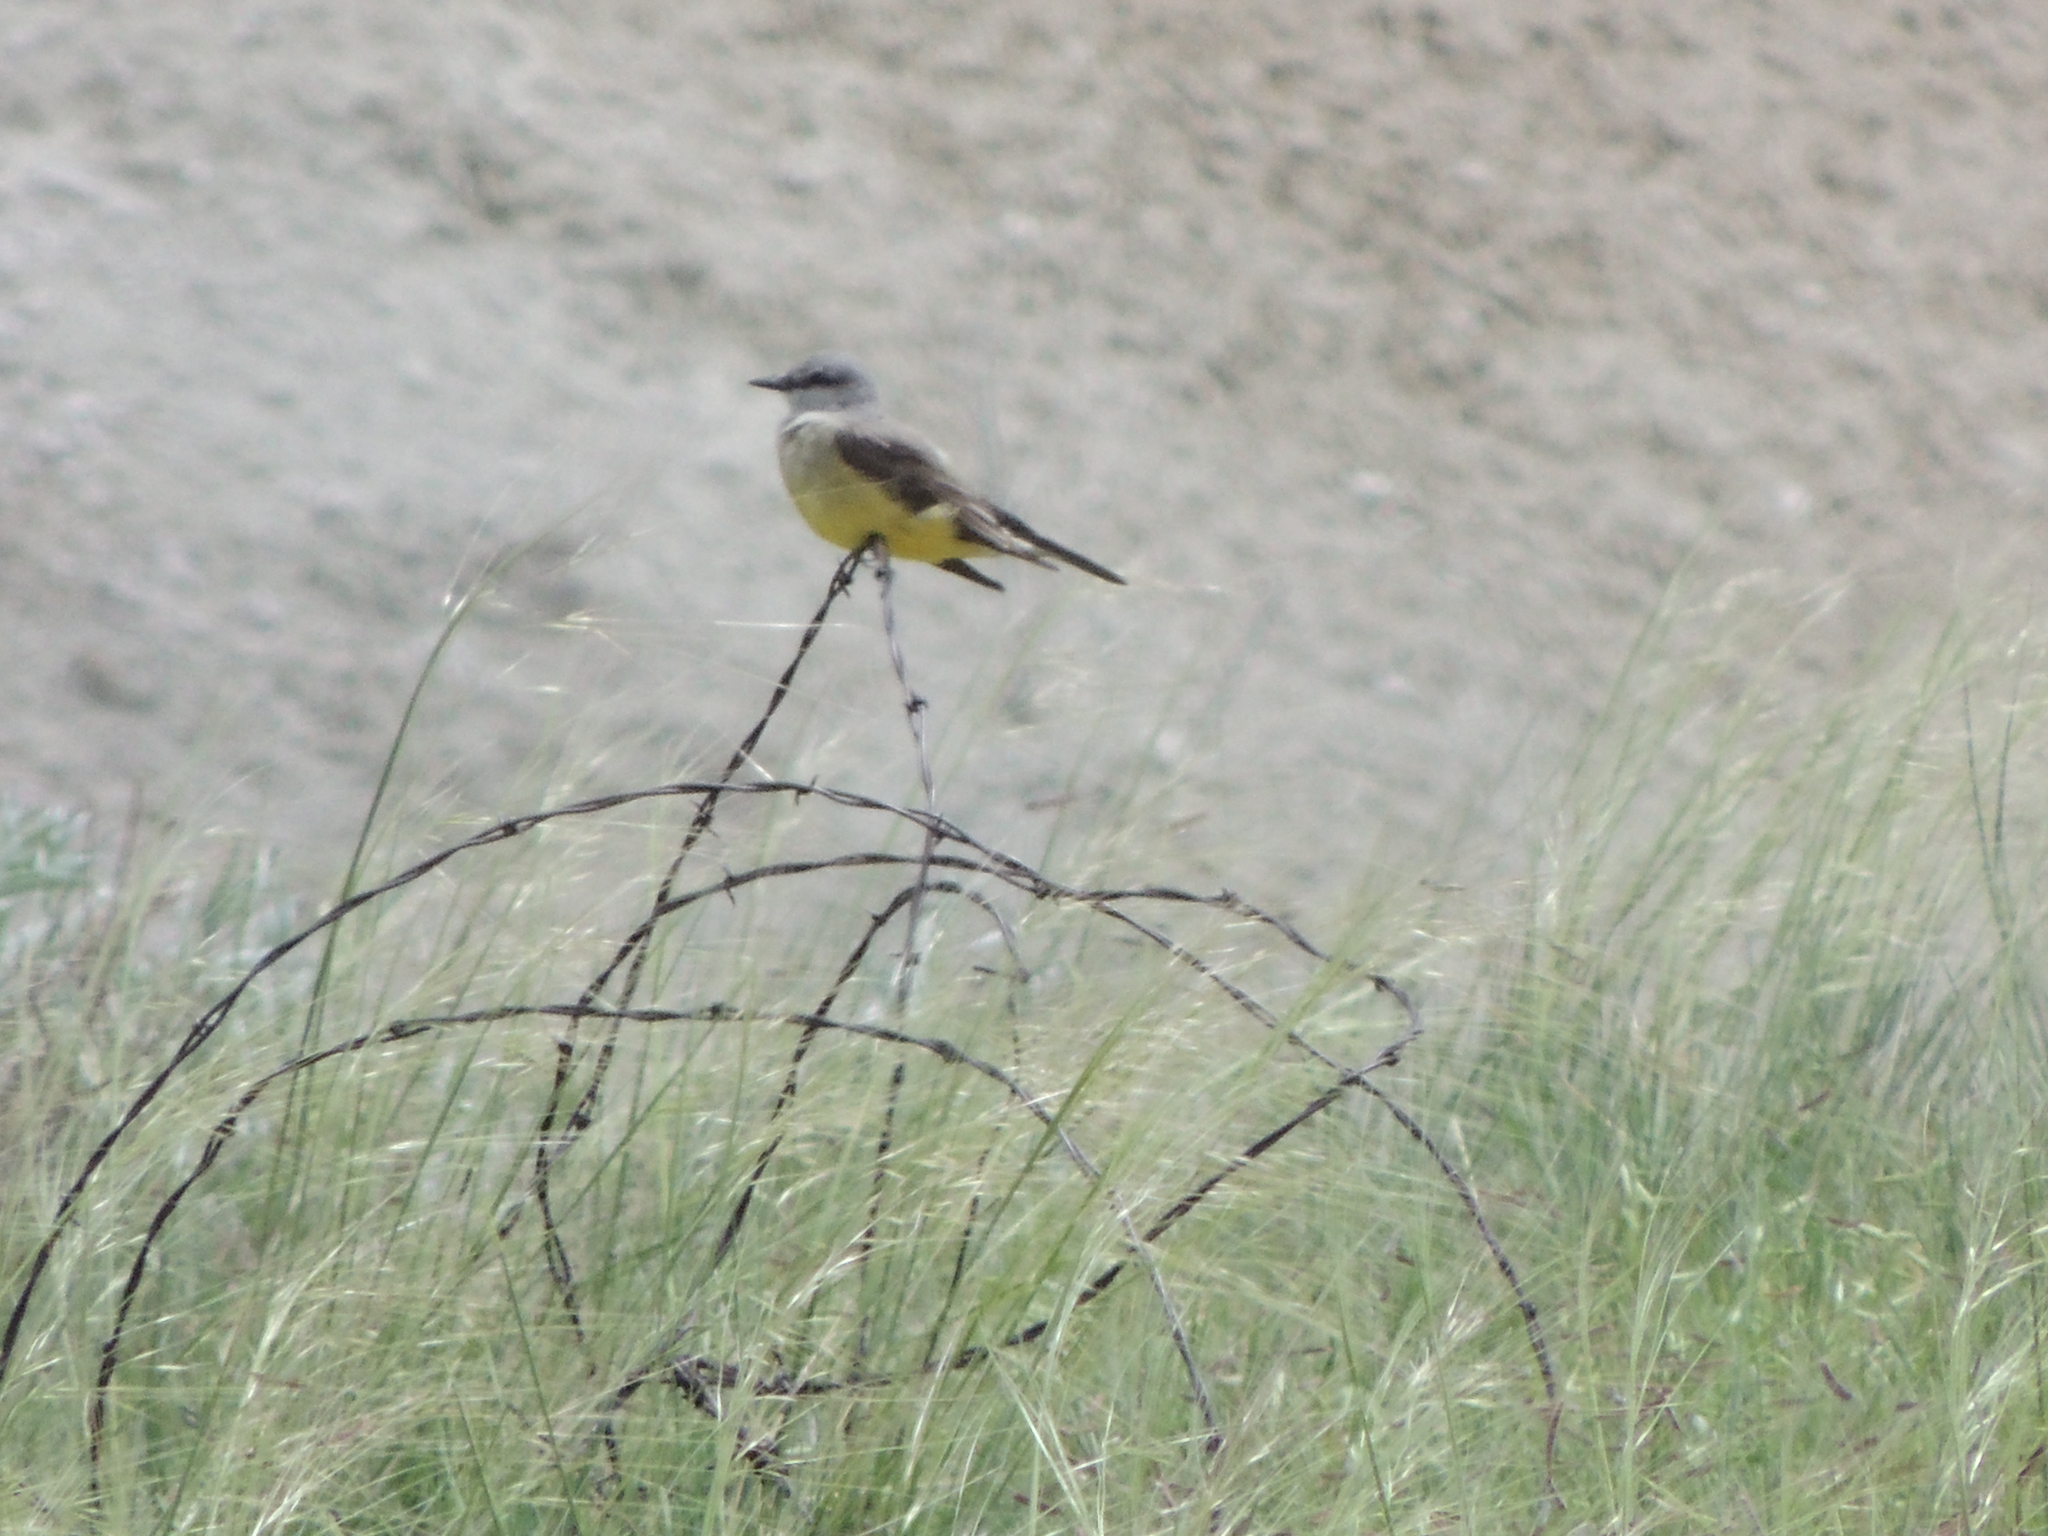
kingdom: Animalia
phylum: Chordata
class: Aves
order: Passeriformes
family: Tyrannidae
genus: Tyrannus
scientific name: Tyrannus verticalis
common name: Western kingbird
